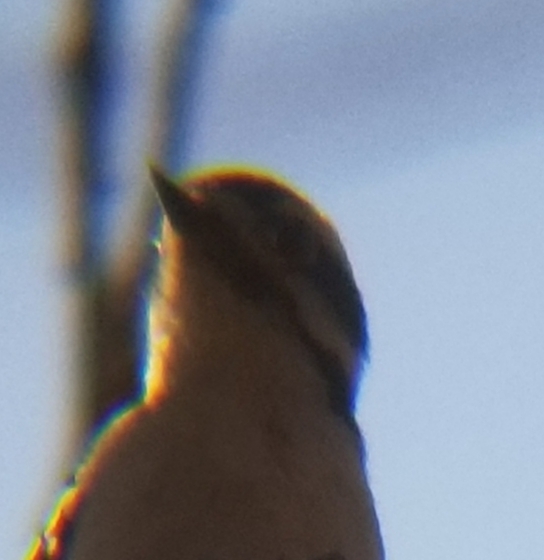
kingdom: Animalia
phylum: Chordata
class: Aves
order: Piciformes
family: Picidae
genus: Dryobates
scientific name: Dryobates pubescens
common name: Downy woodpecker
